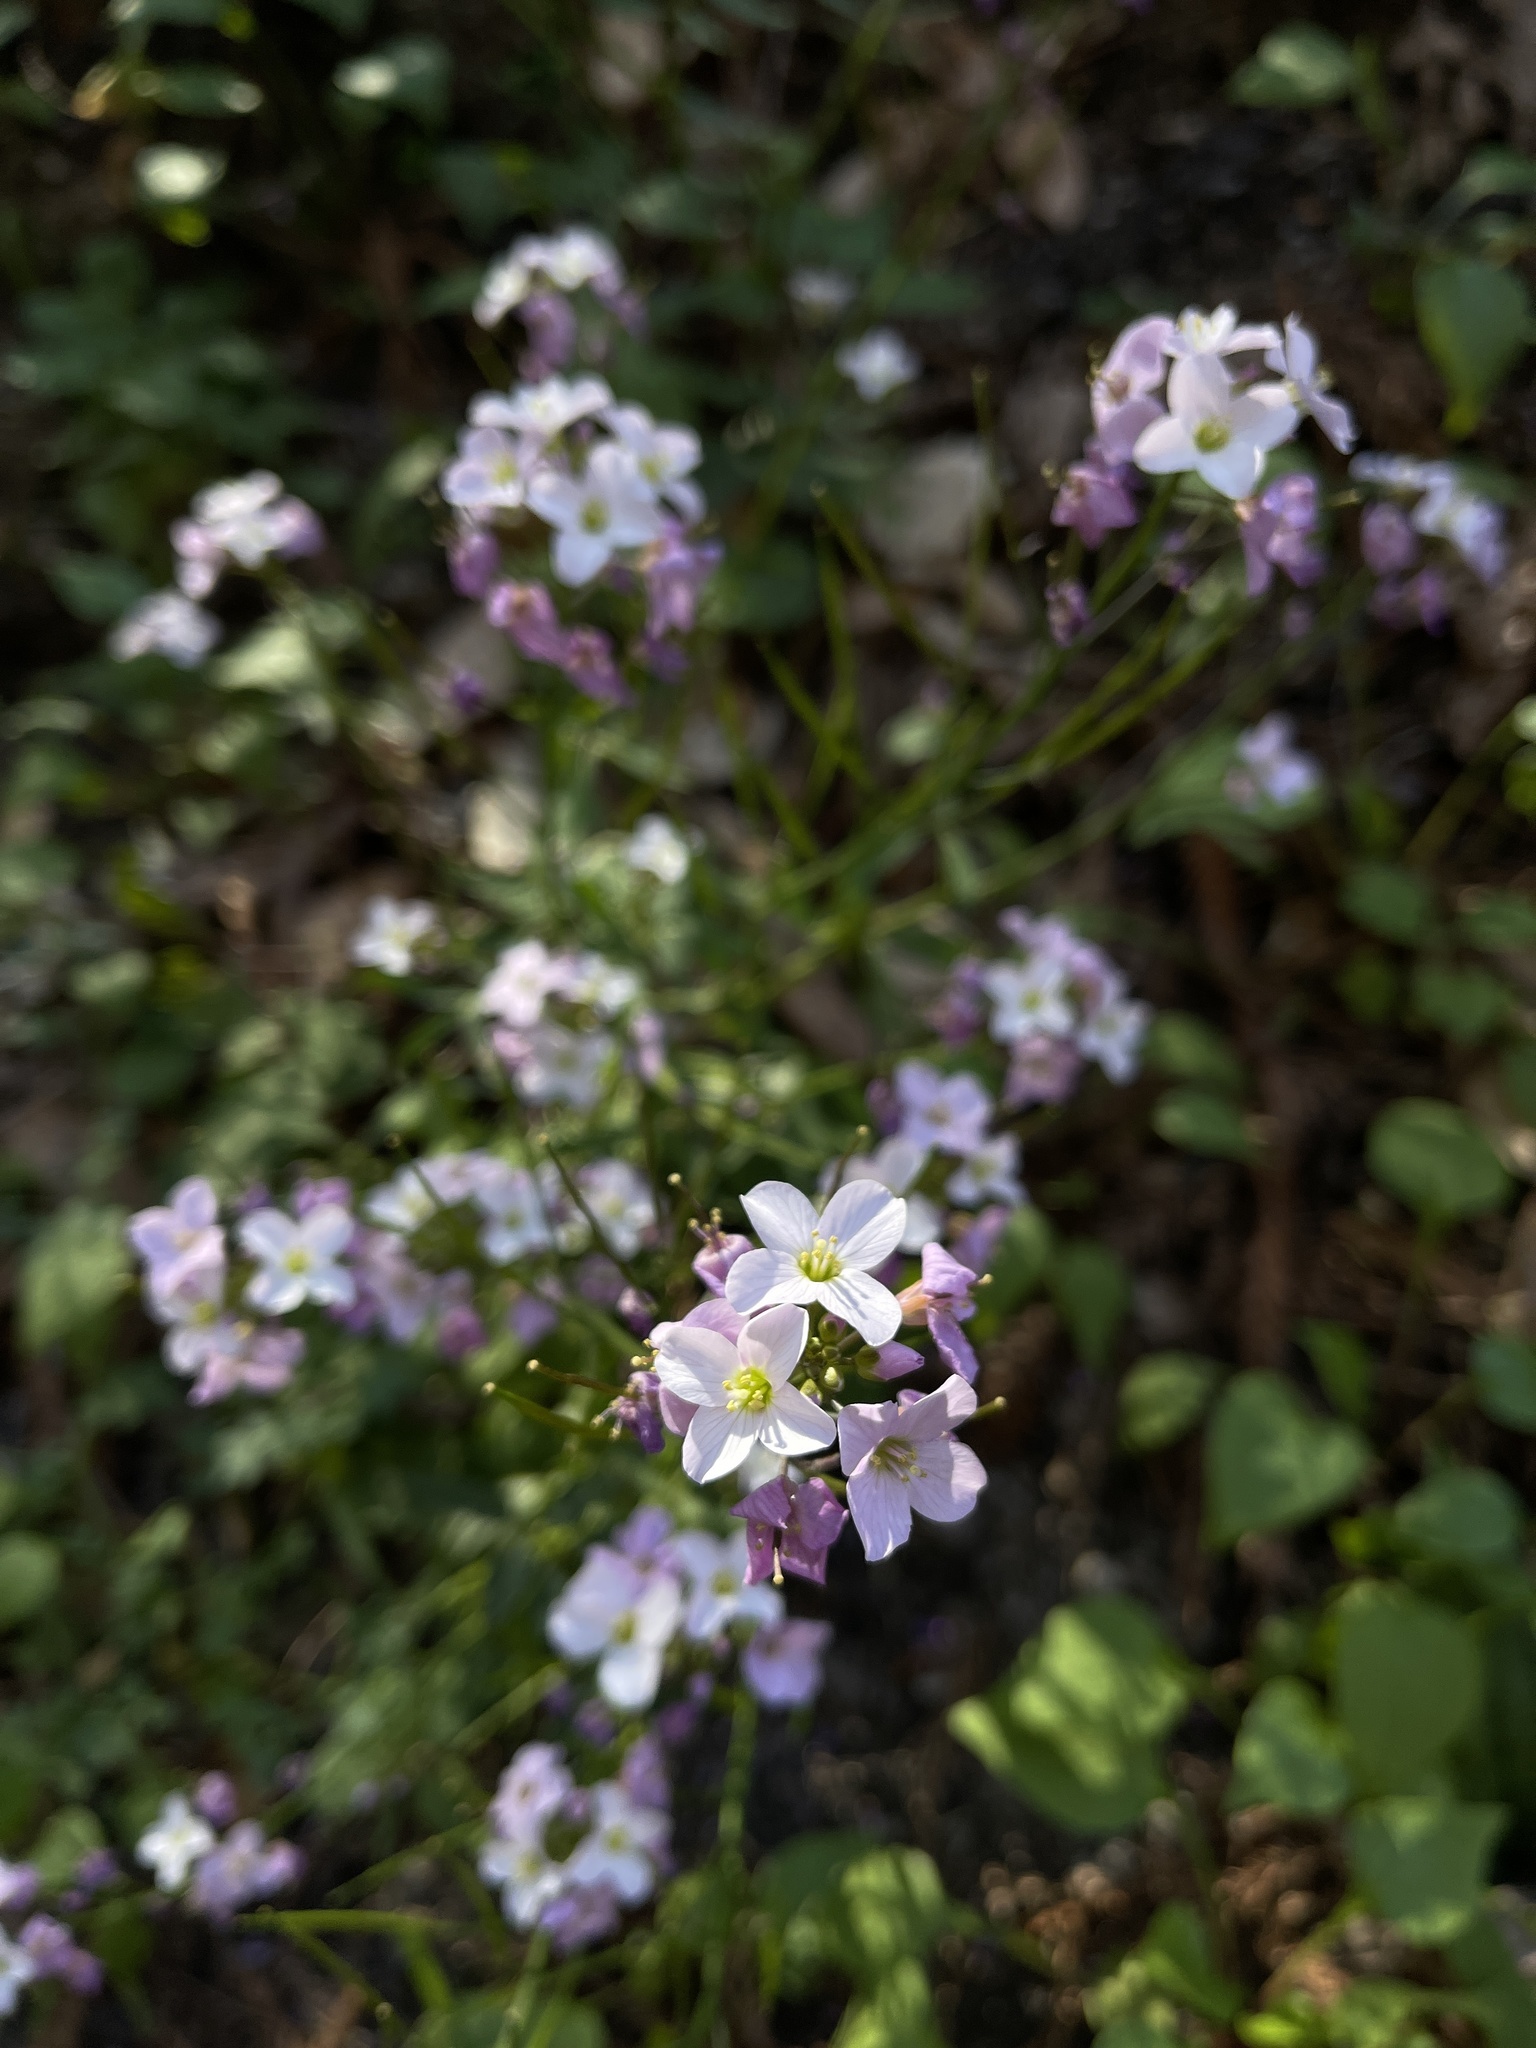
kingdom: Plantae
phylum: Tracheophyta
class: Magnoliopsida
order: Brassicales
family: Brassicaceae
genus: Cardamine
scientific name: Cardamine californica
